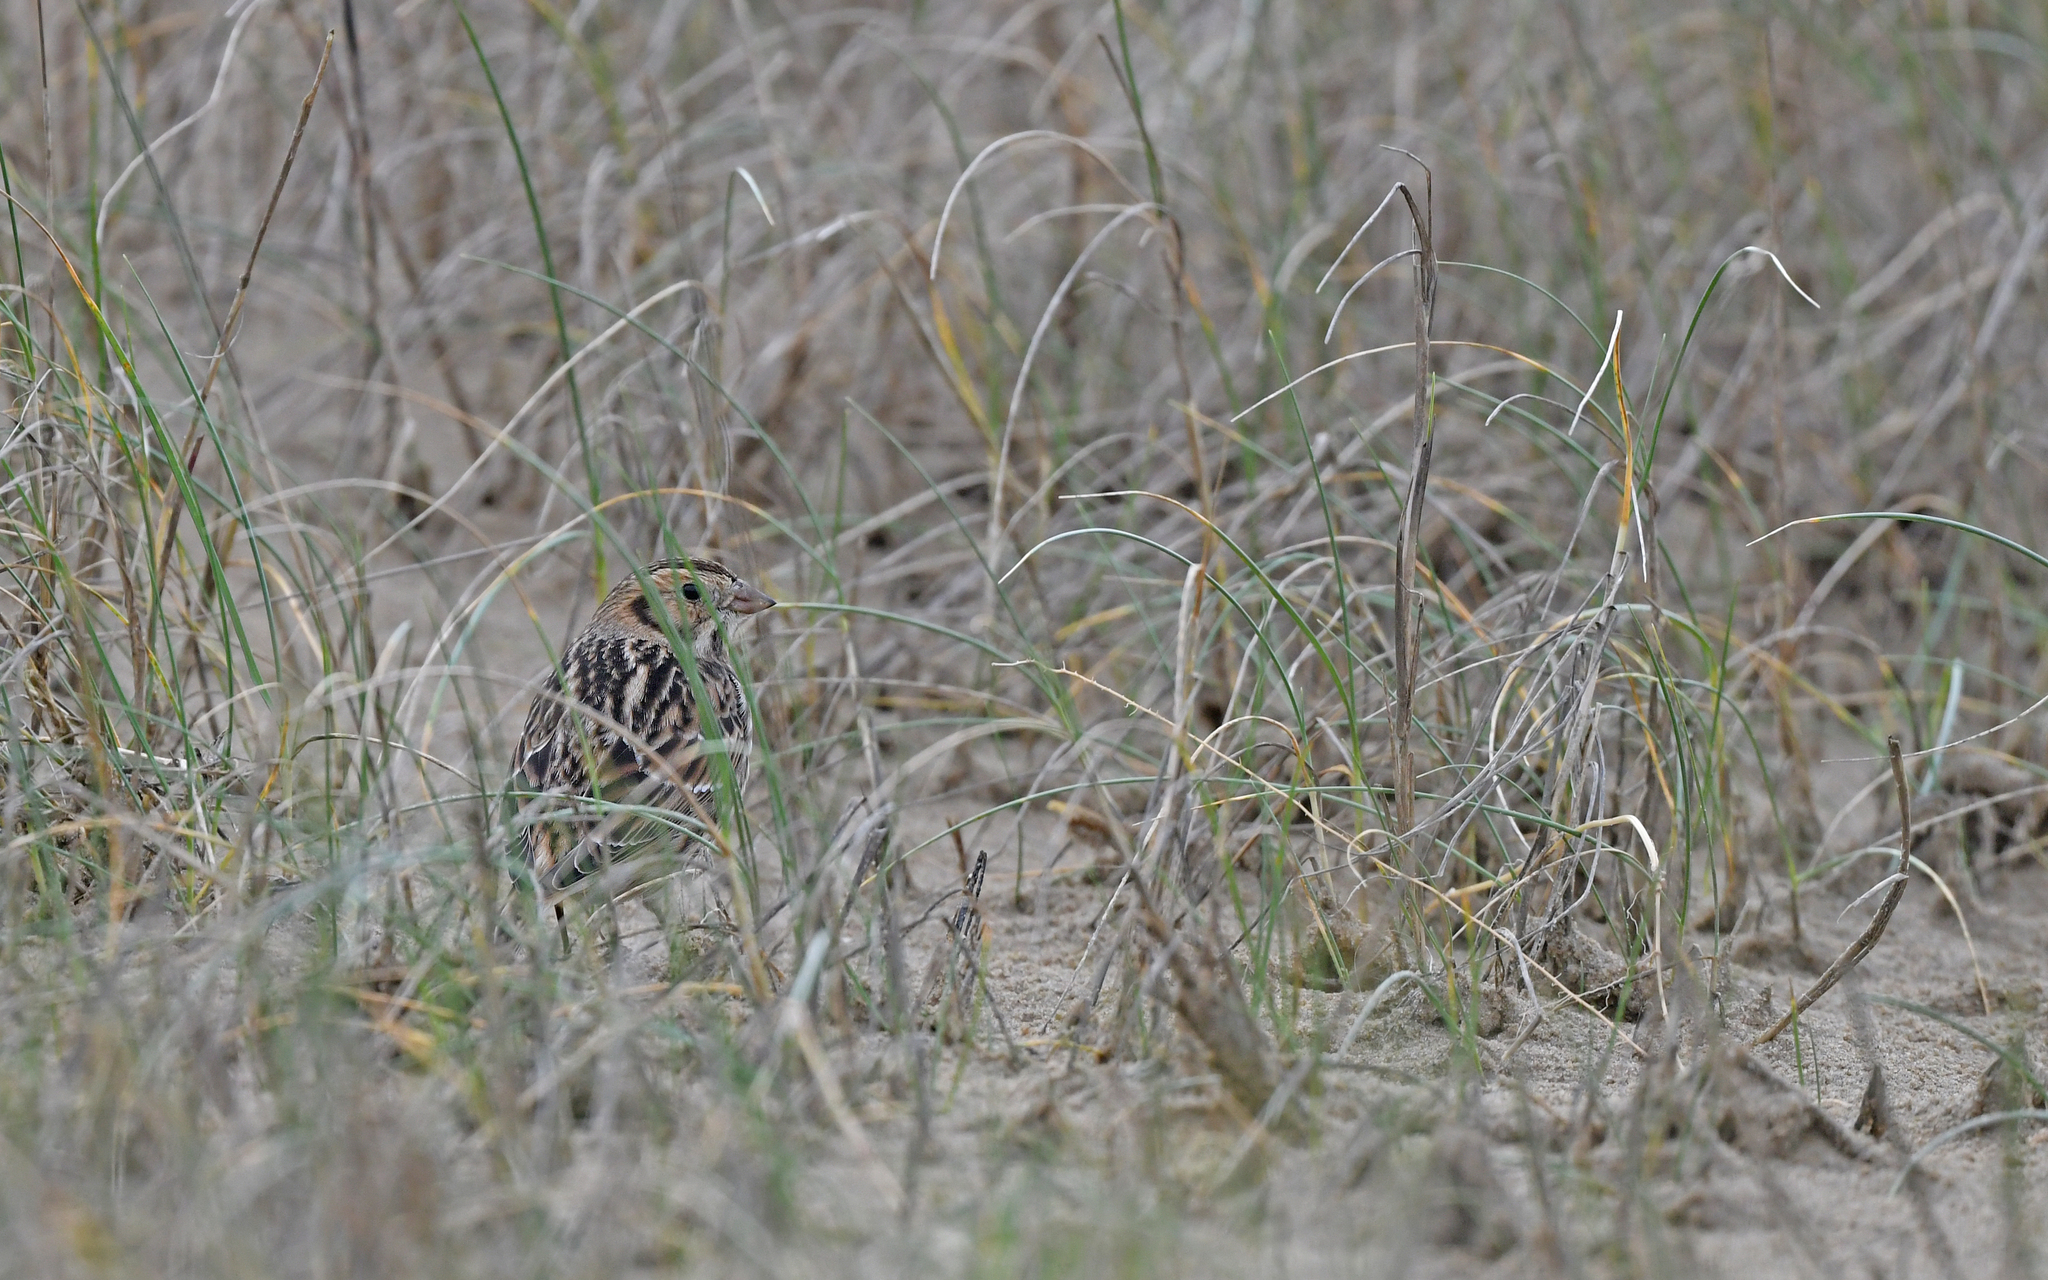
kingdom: Animalia
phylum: Chordata
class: Aves
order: Passeriformes
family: Calcariidae
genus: Calcarius
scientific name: Calcarius lapponicus
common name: Lapland longspur
